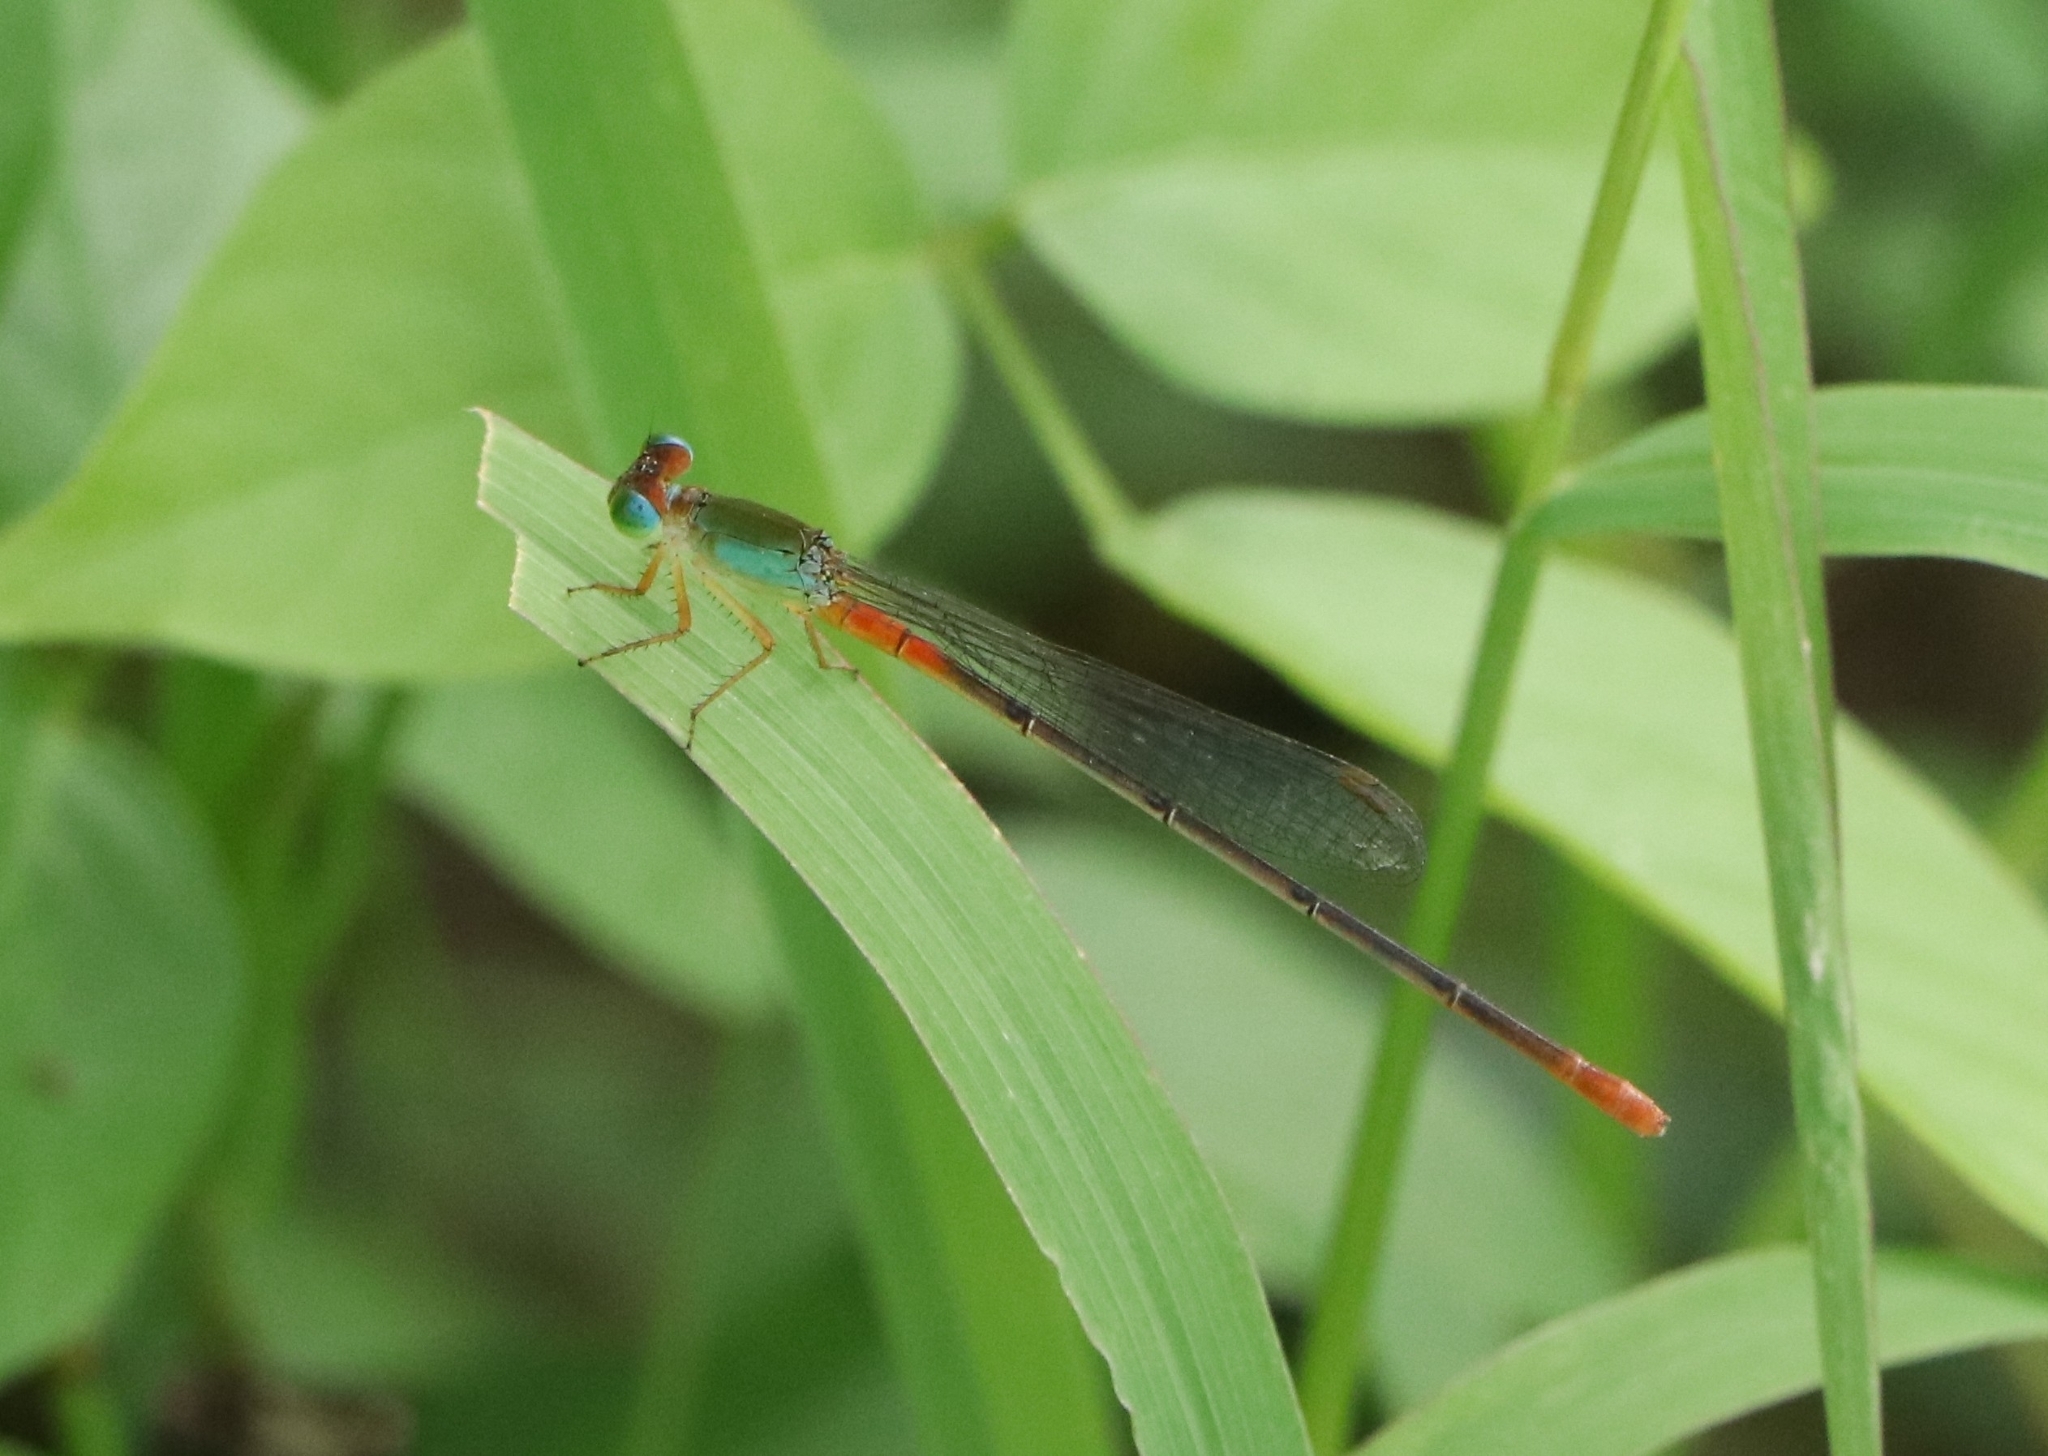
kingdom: Animalia
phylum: Arthropoda
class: Insecta
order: Odonata
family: Coenagrionidae
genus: Ceriagrion
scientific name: Ceriagrion cerinorubellum
